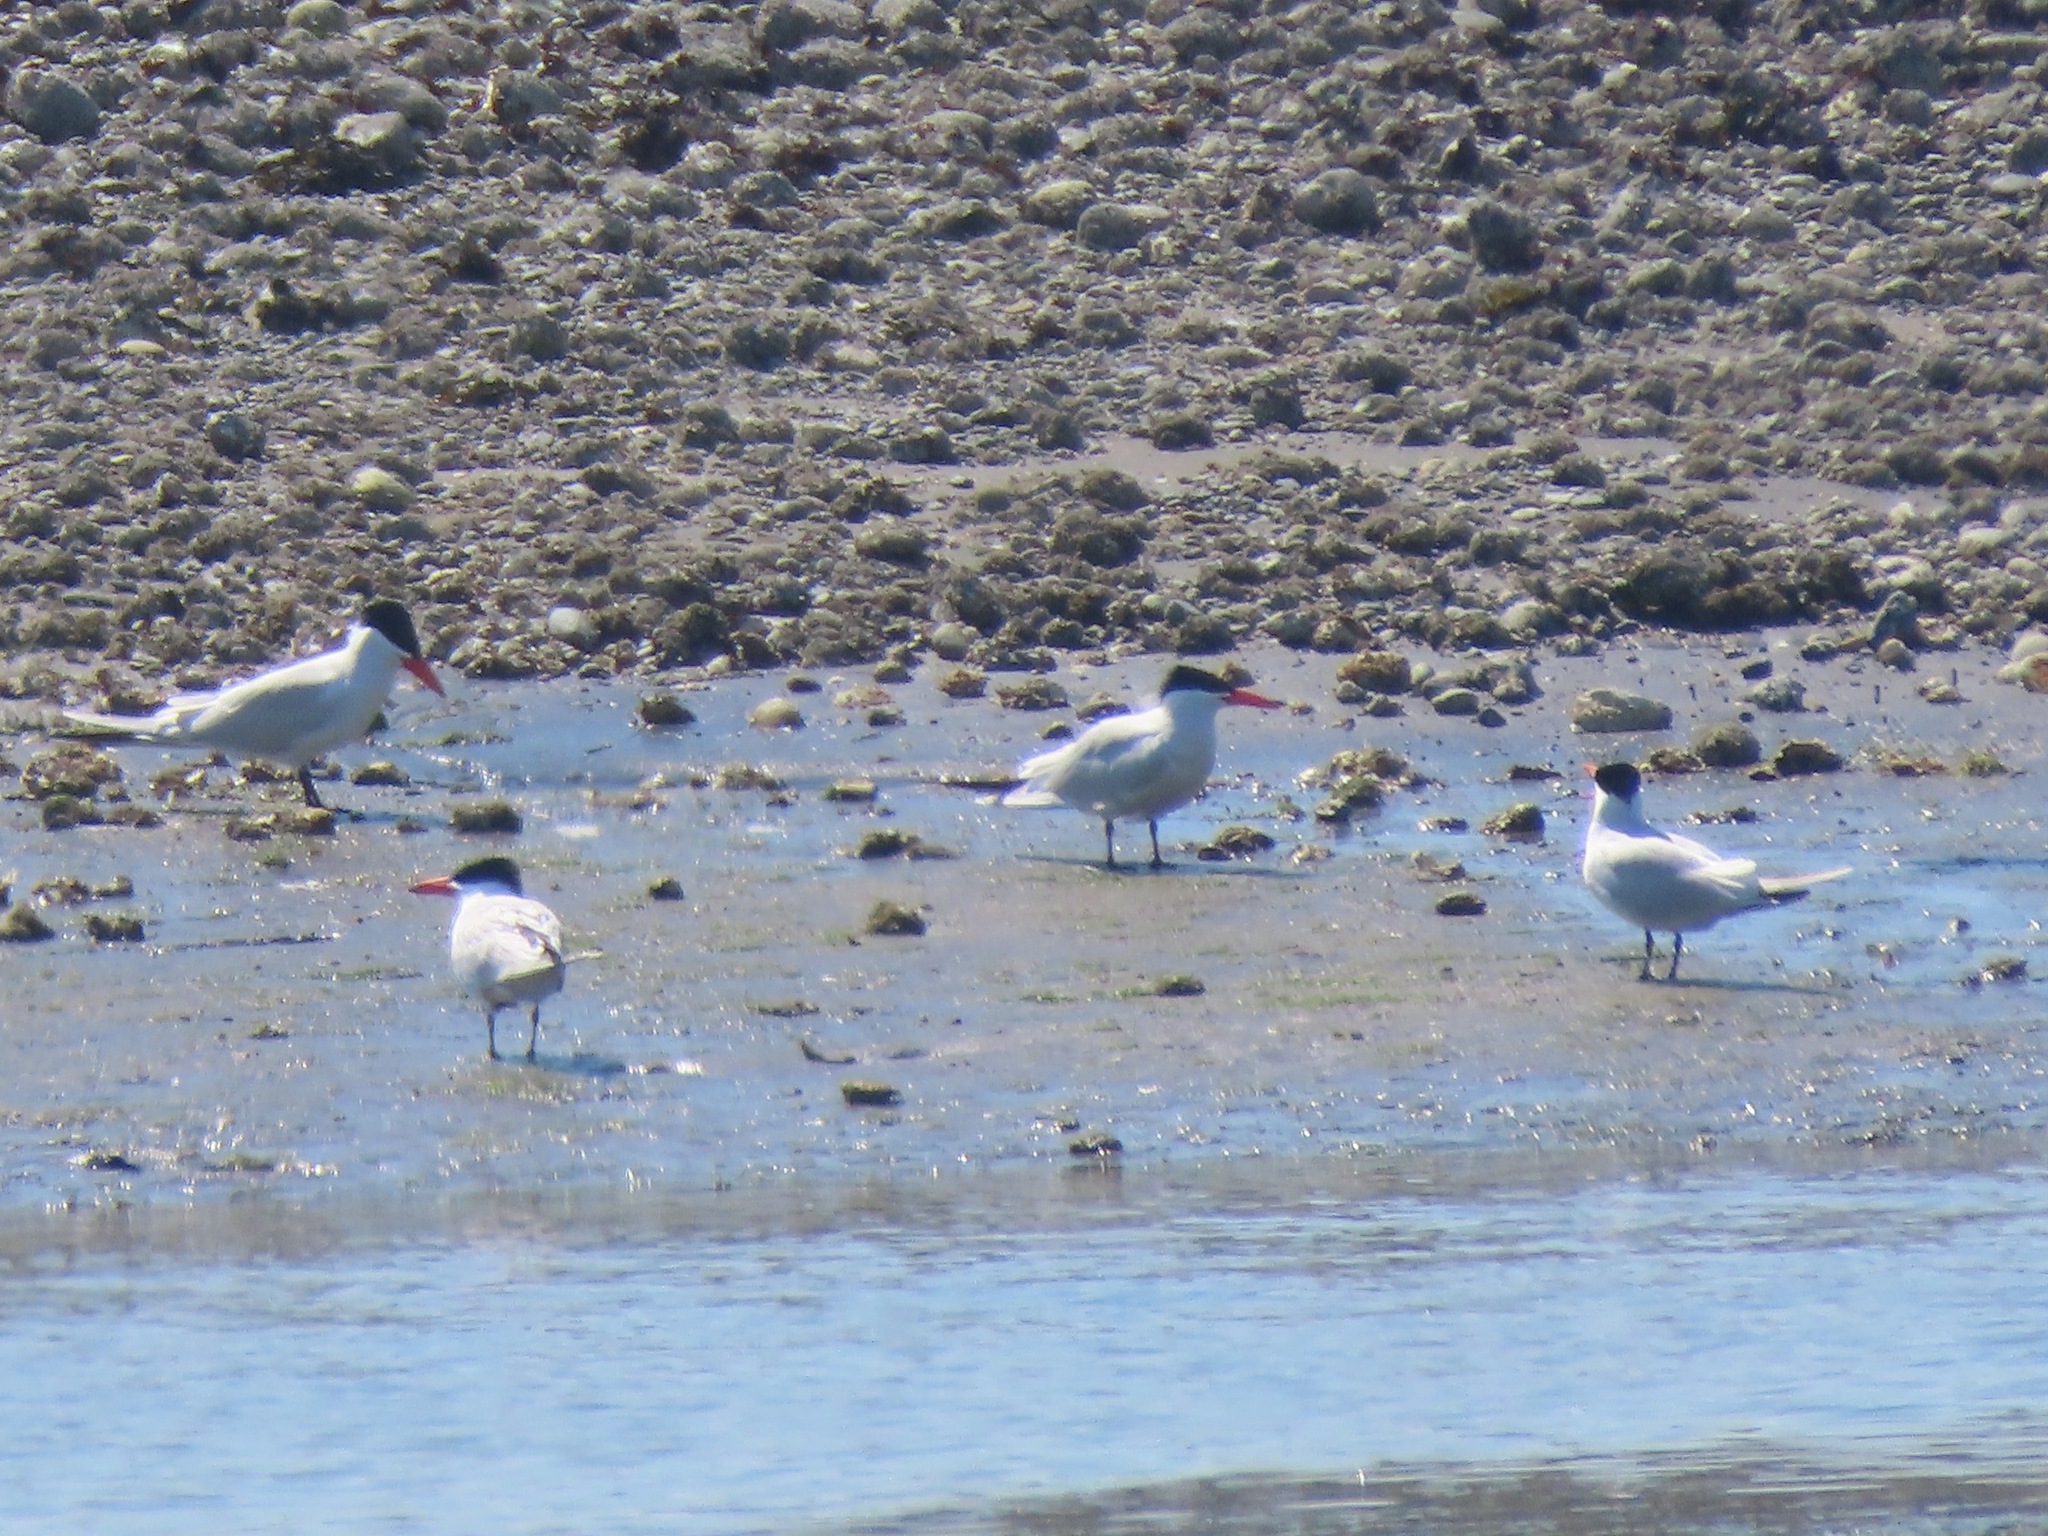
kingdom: Animalia
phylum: Chordata
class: Aves
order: Charadriiformes
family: Laridae
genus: Hydroprogne
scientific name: Hydroprogne caspia
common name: Caspian tern
